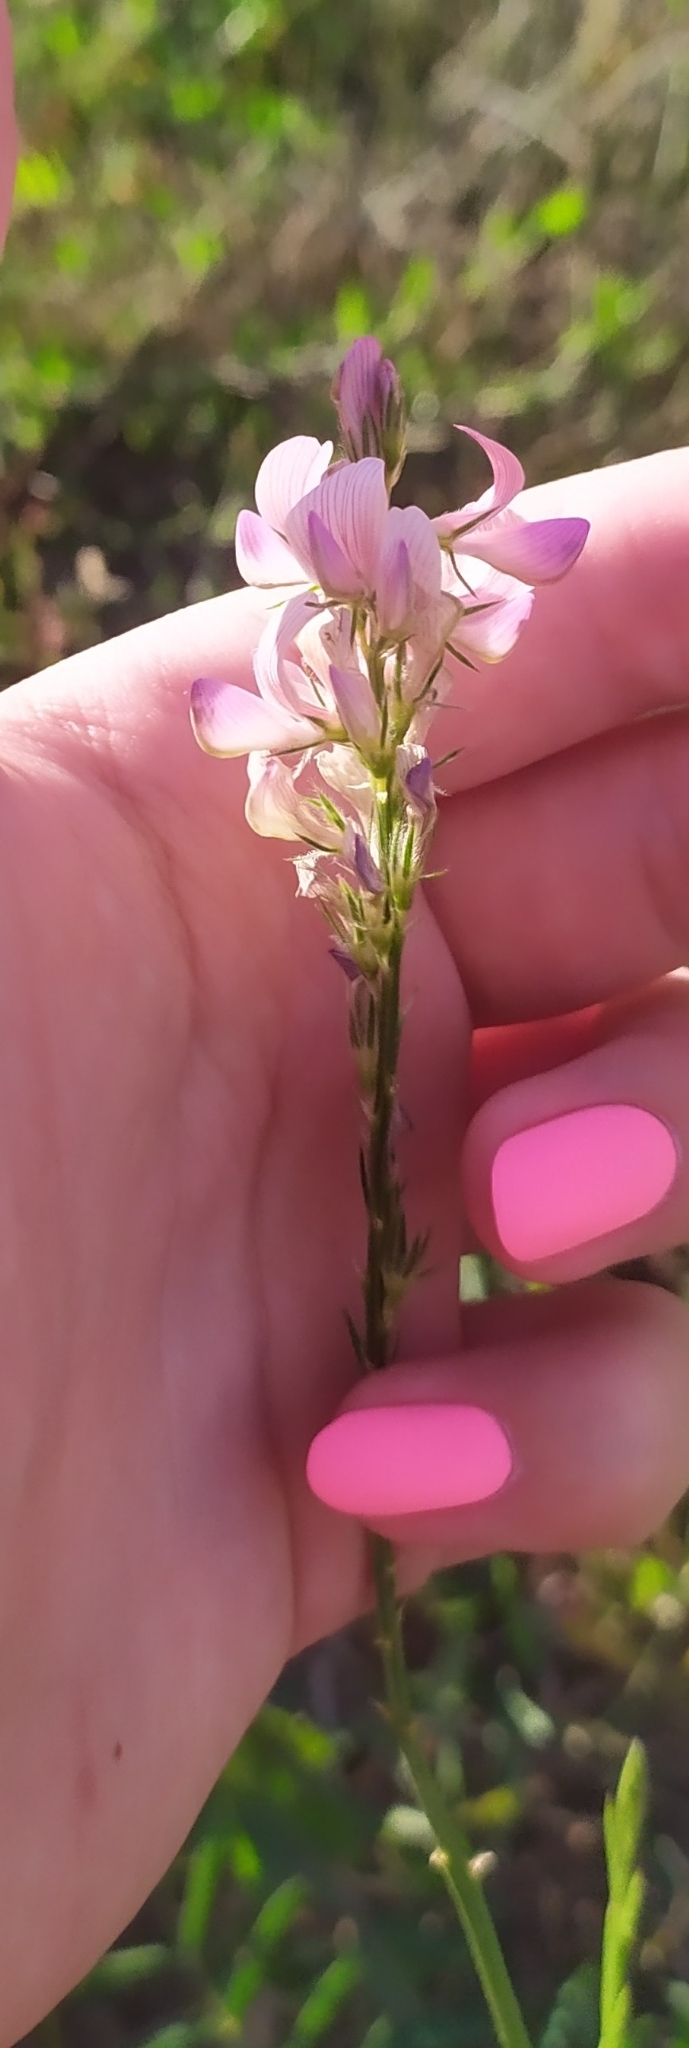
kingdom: Plantae
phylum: Tracheophyta
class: Magnoliopsida
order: Fabales
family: Fabaceae
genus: Onobrychis
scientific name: Onobrychis viciifolia
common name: Sainfoin
